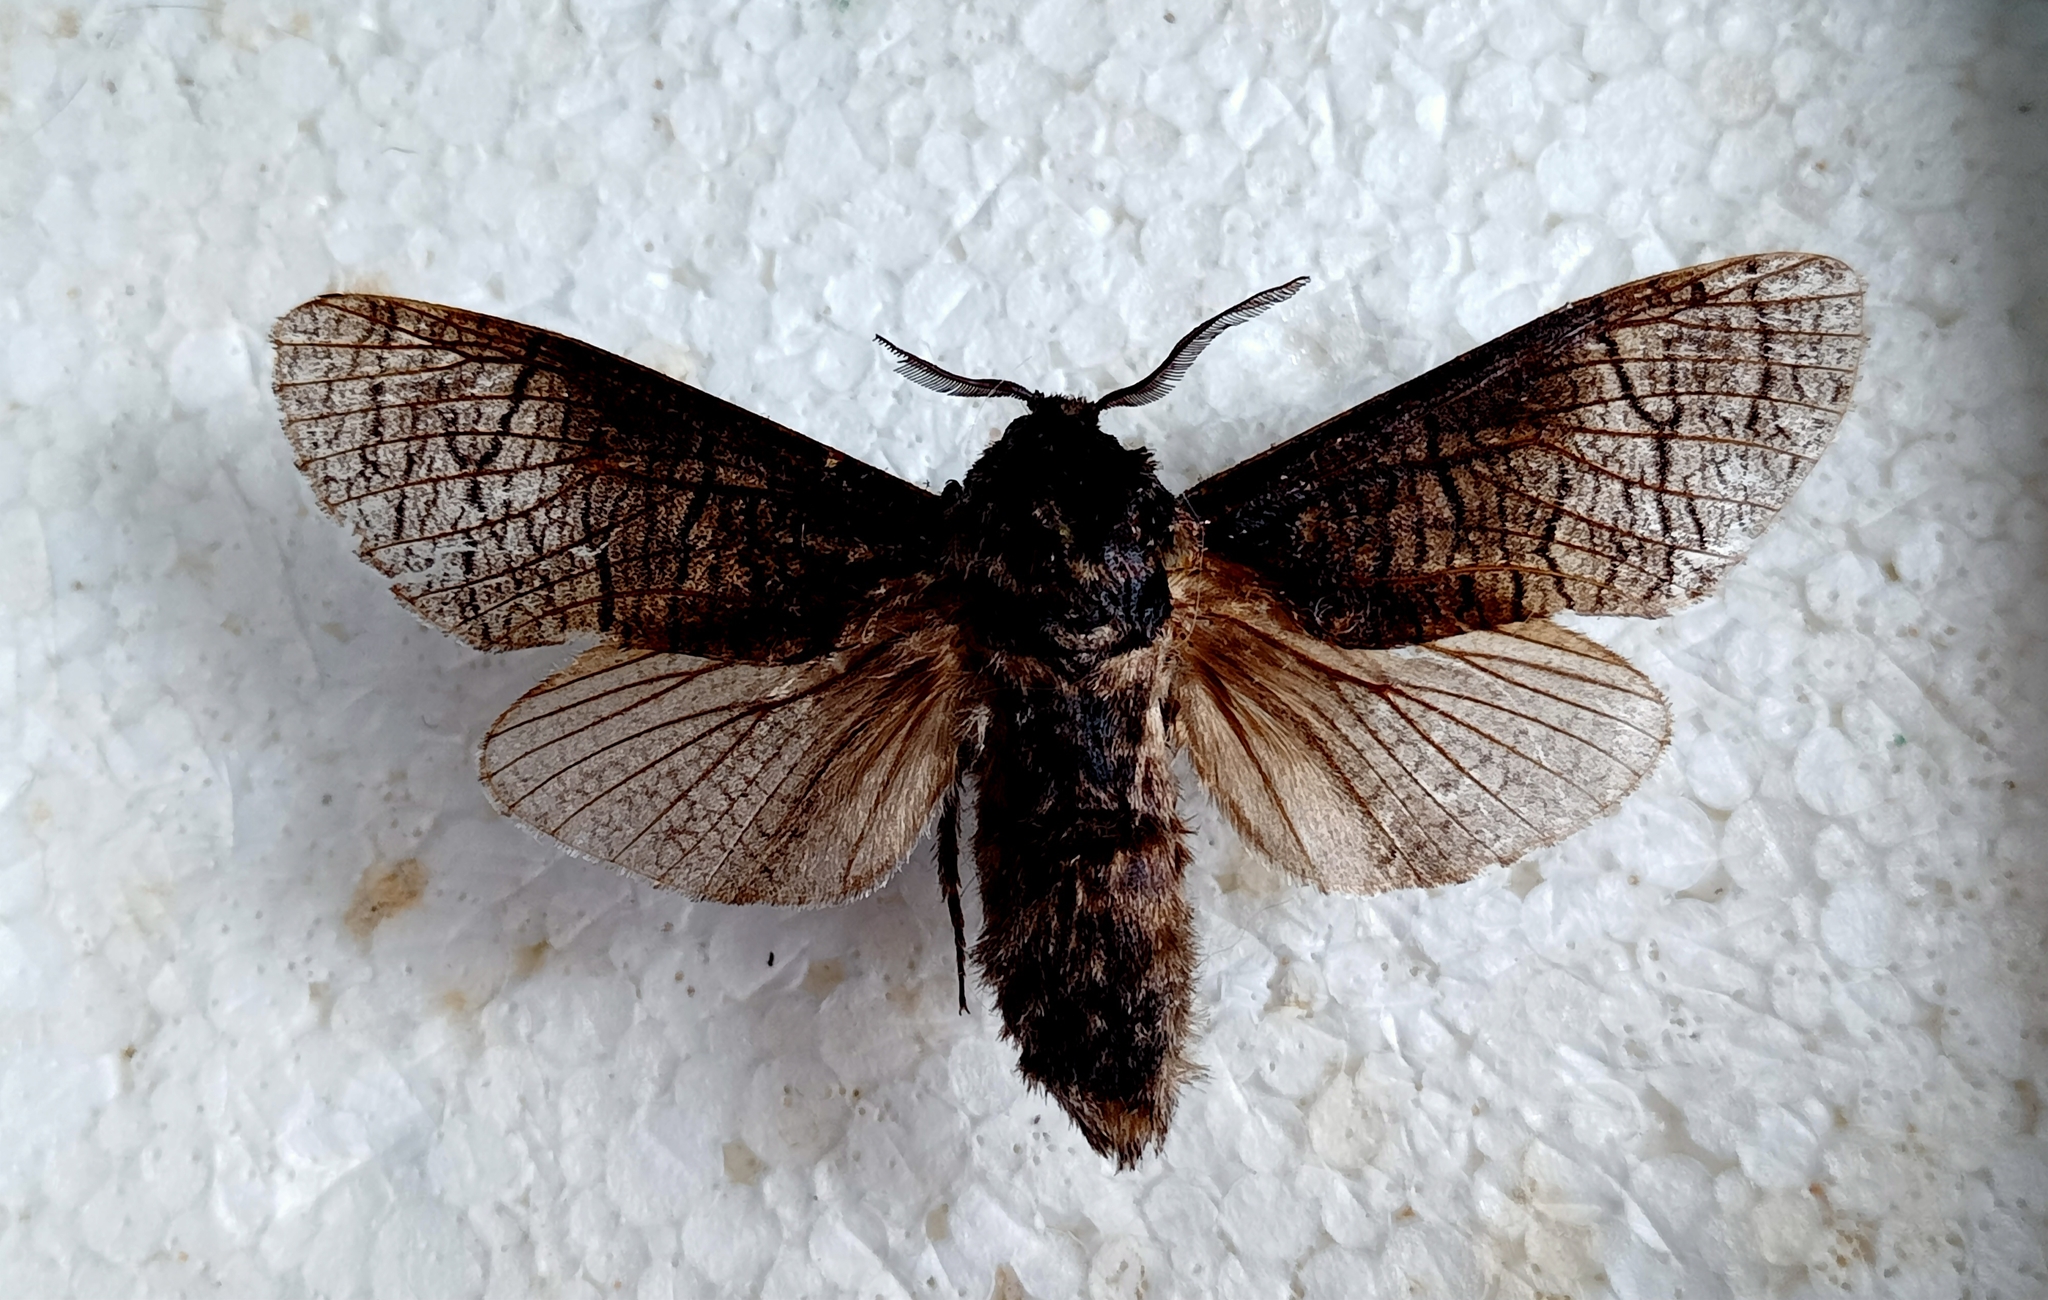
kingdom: Animalia
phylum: Arthropoda
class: Insecta
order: Lepidoptera
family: Cossidae
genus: Acossus
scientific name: Acossus terebra
